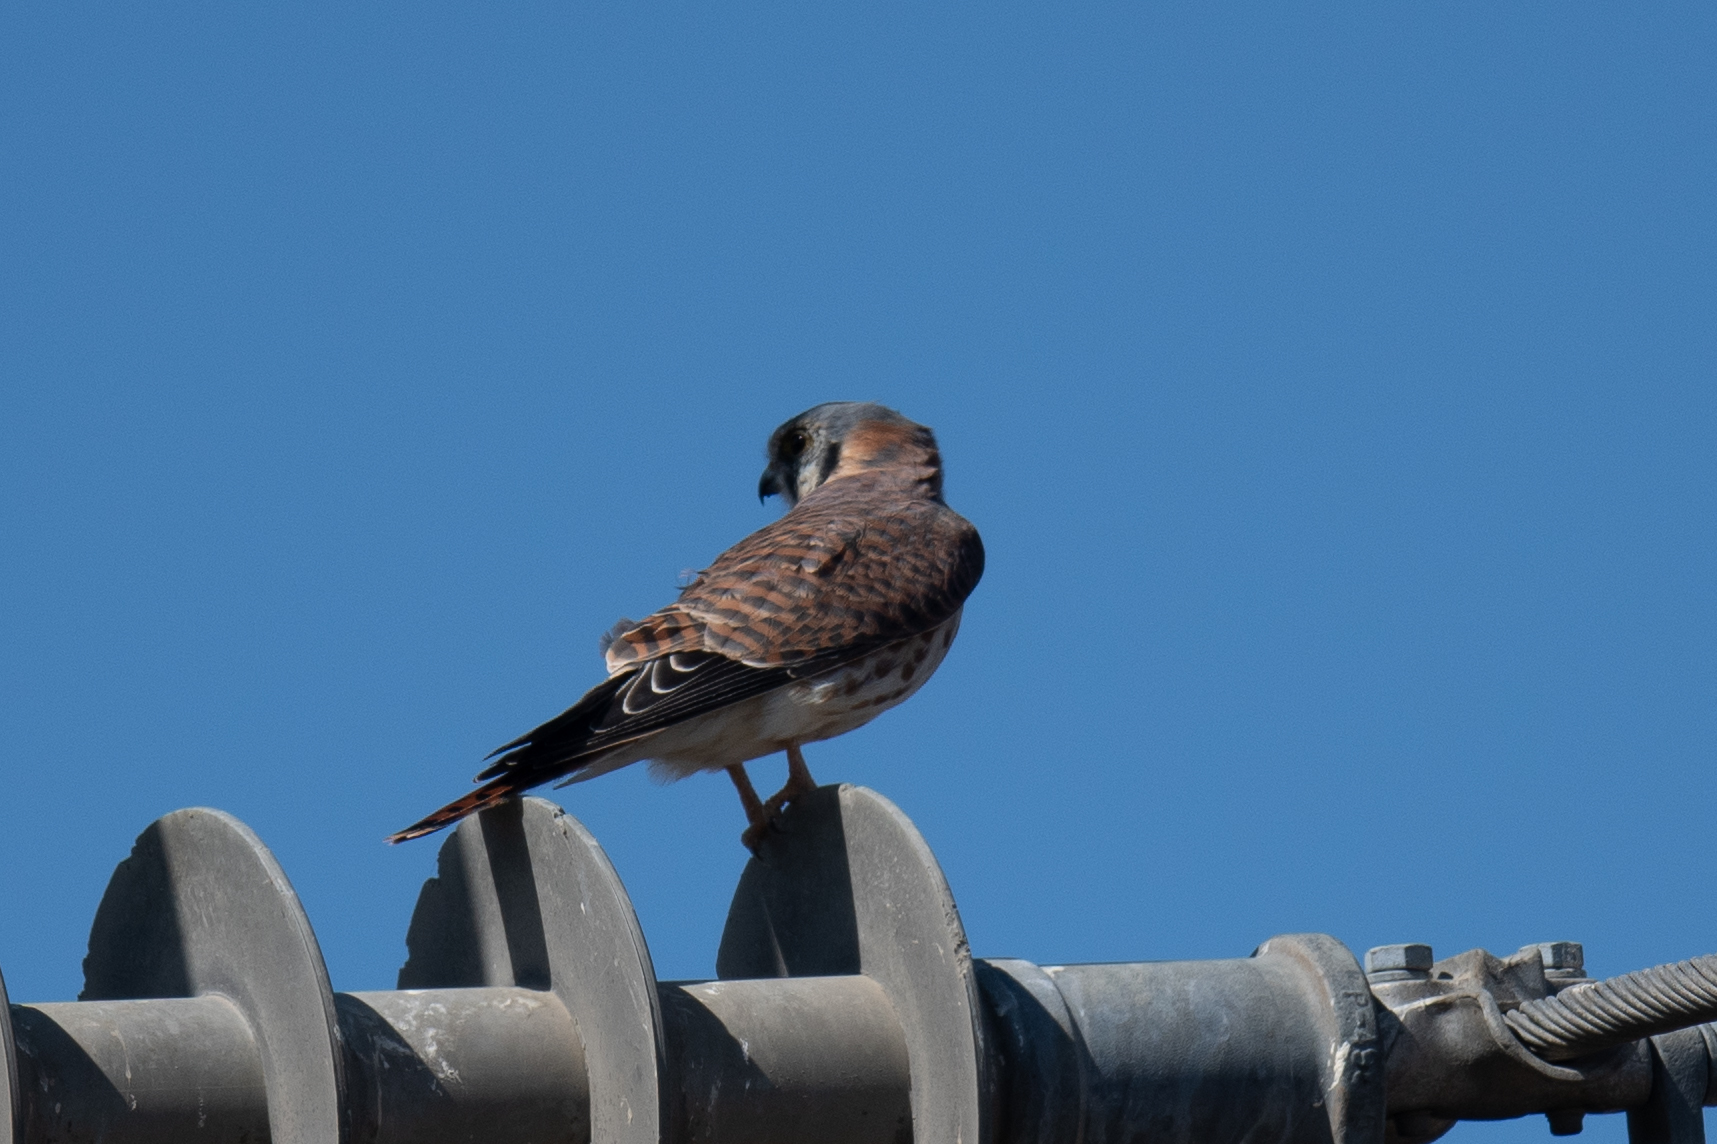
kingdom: Animalia
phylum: Chordata
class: Aves
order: Falconiformes
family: Falconidae
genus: Falco
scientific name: Falco sparverius
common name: American kestrel
